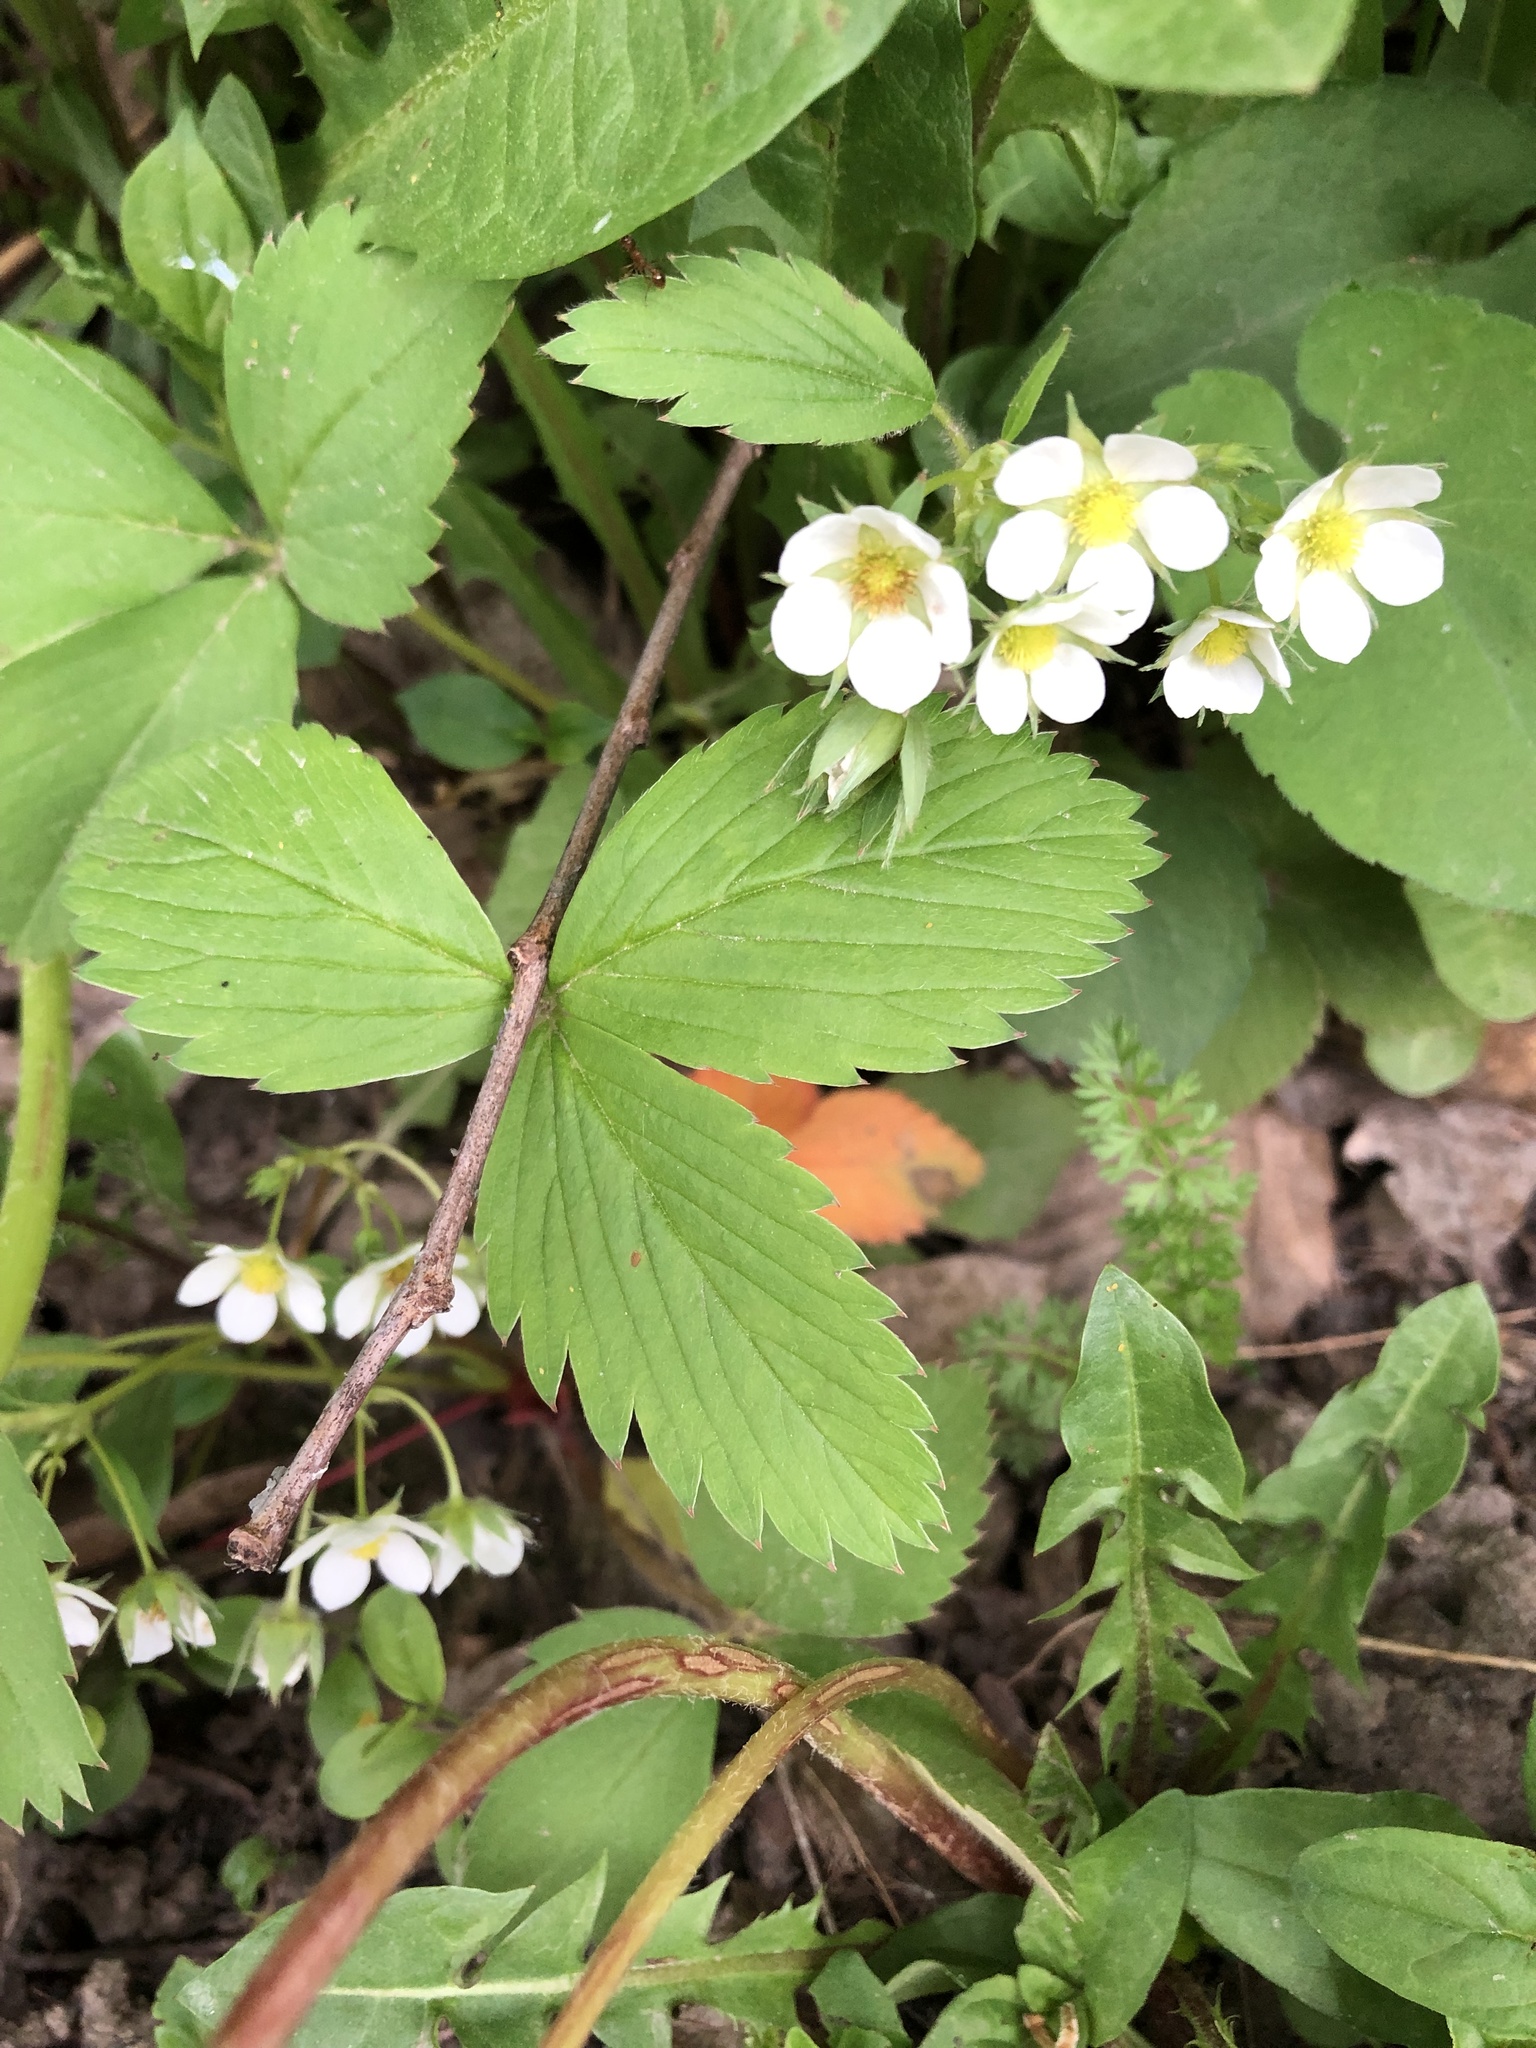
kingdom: Plantae
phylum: Tracheophyta
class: Magnoliopsida
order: Rosales
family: Rosaceae
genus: Fragaria
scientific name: Fragaria virginiana
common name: Thickleaved wild strawberry
